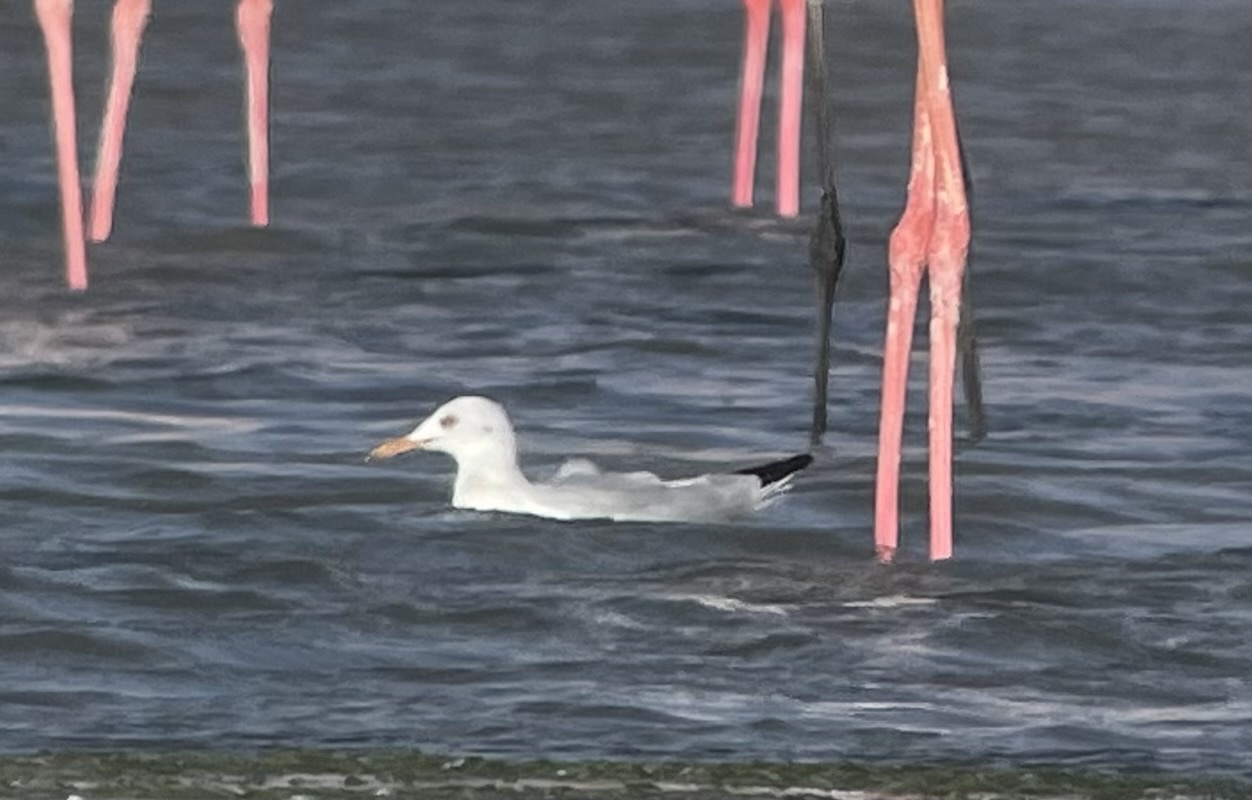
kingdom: Animalia
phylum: Chordata
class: Aves
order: Charadriiformes
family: Laridae
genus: Chroicocephalus
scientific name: Chroicocephalus genei
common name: Slender-billed gull
